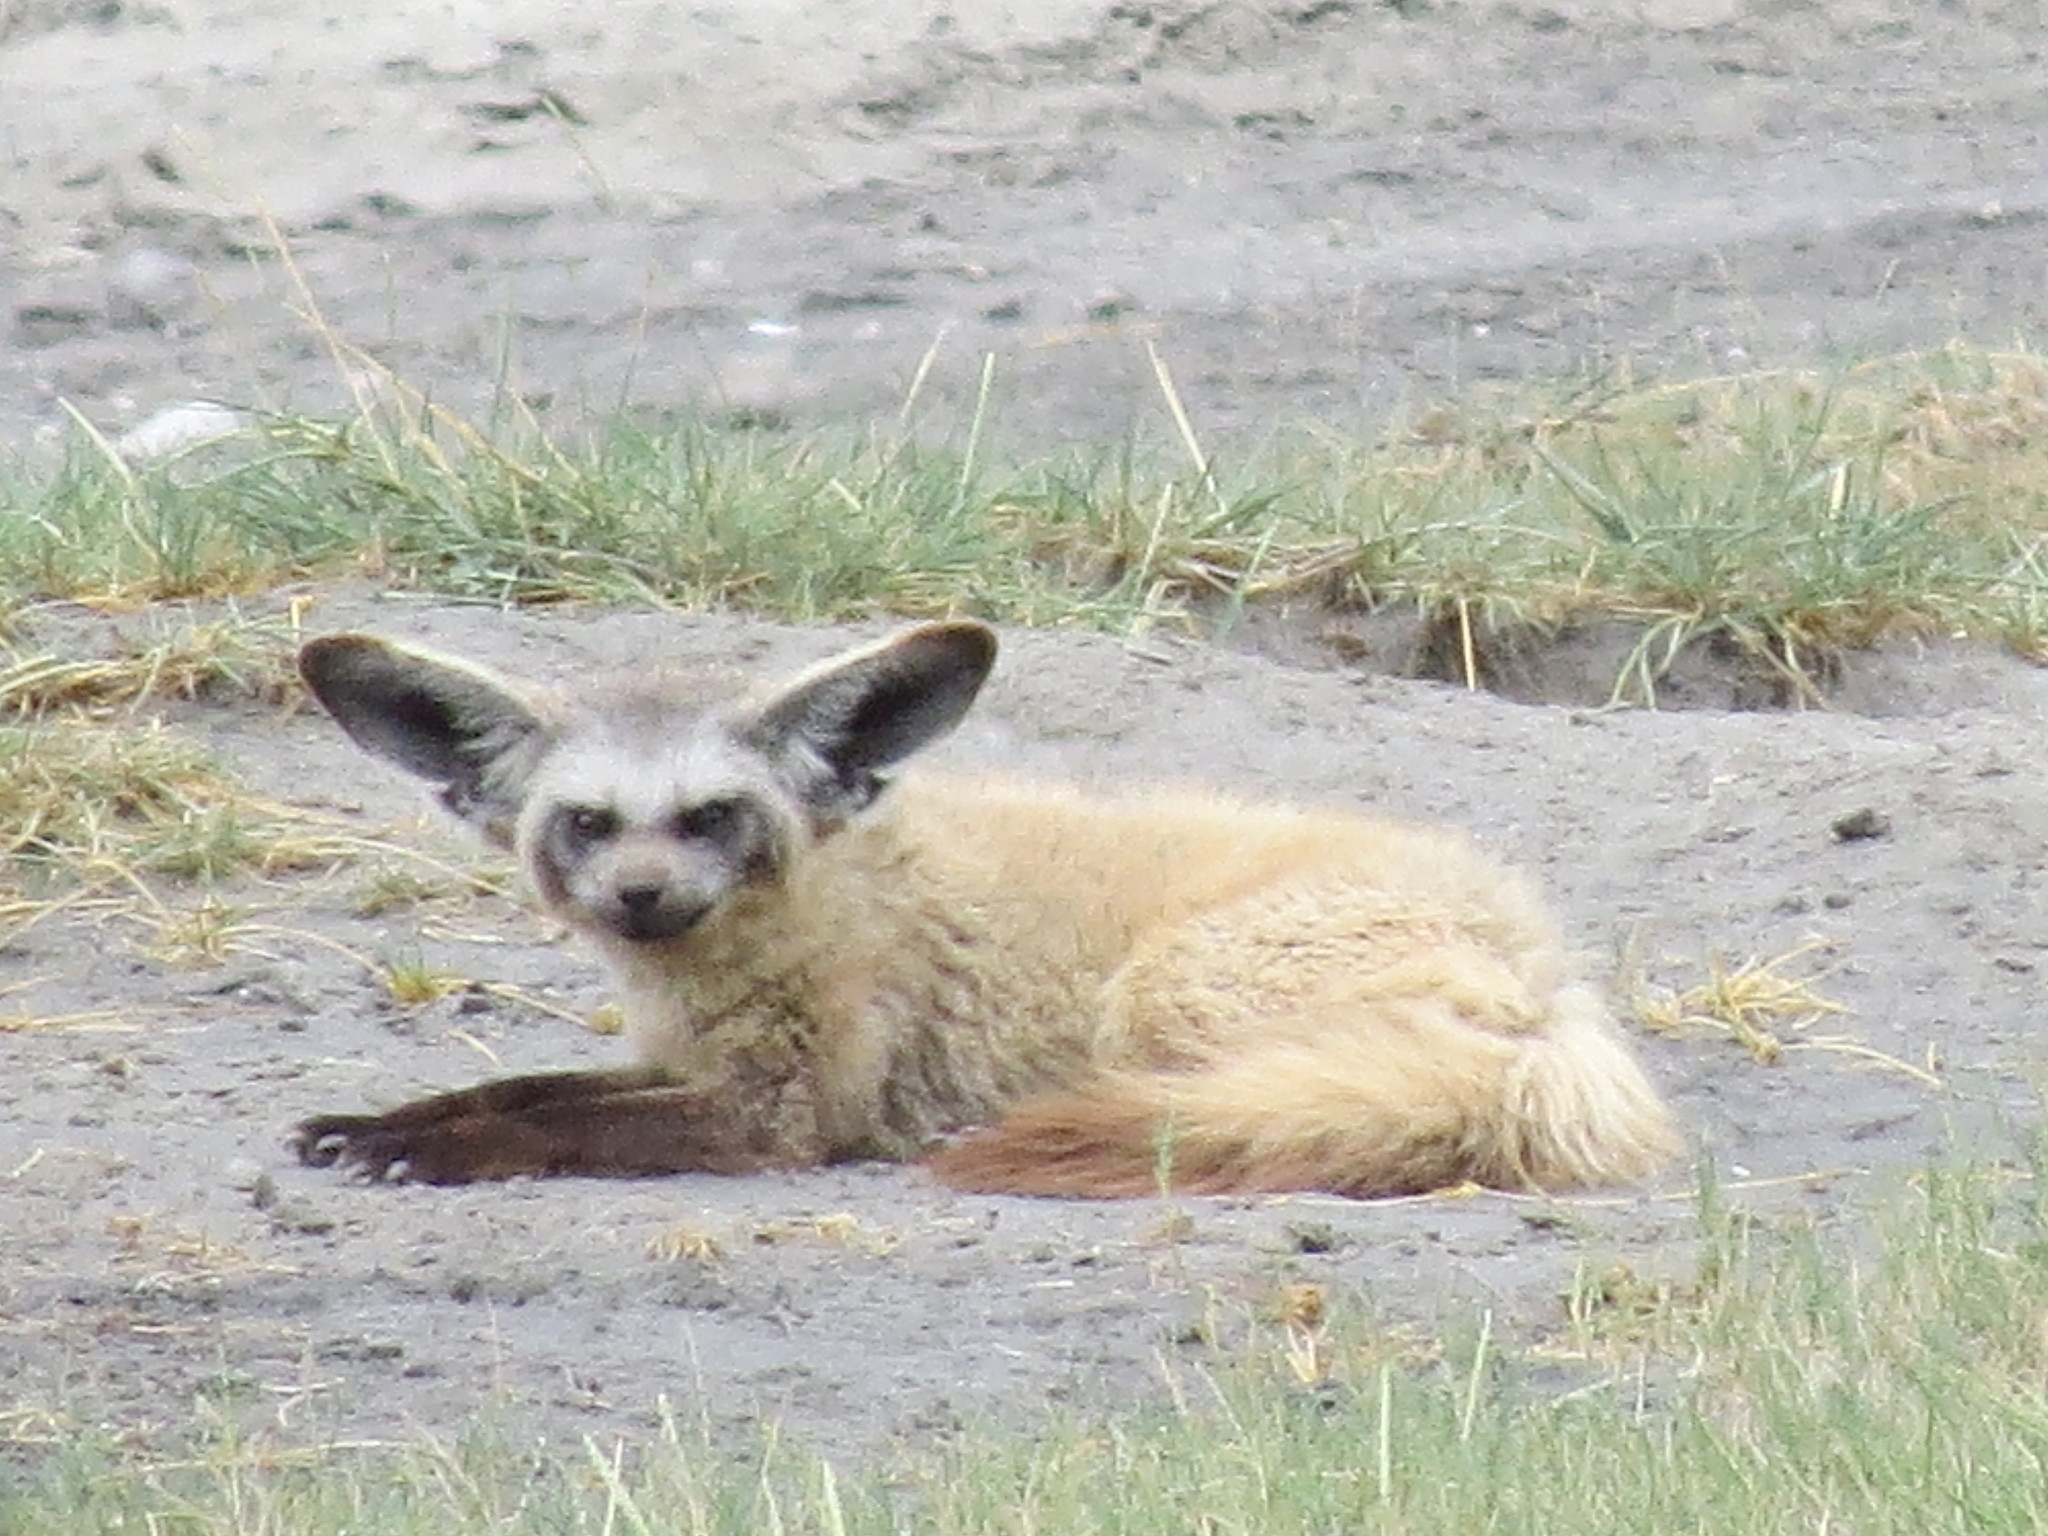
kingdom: Animalia
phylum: Chordata
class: Mammalia
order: Carnivora
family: Canidae
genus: Otocyon
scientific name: Otocyon megalotis
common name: Bat-eared fox
